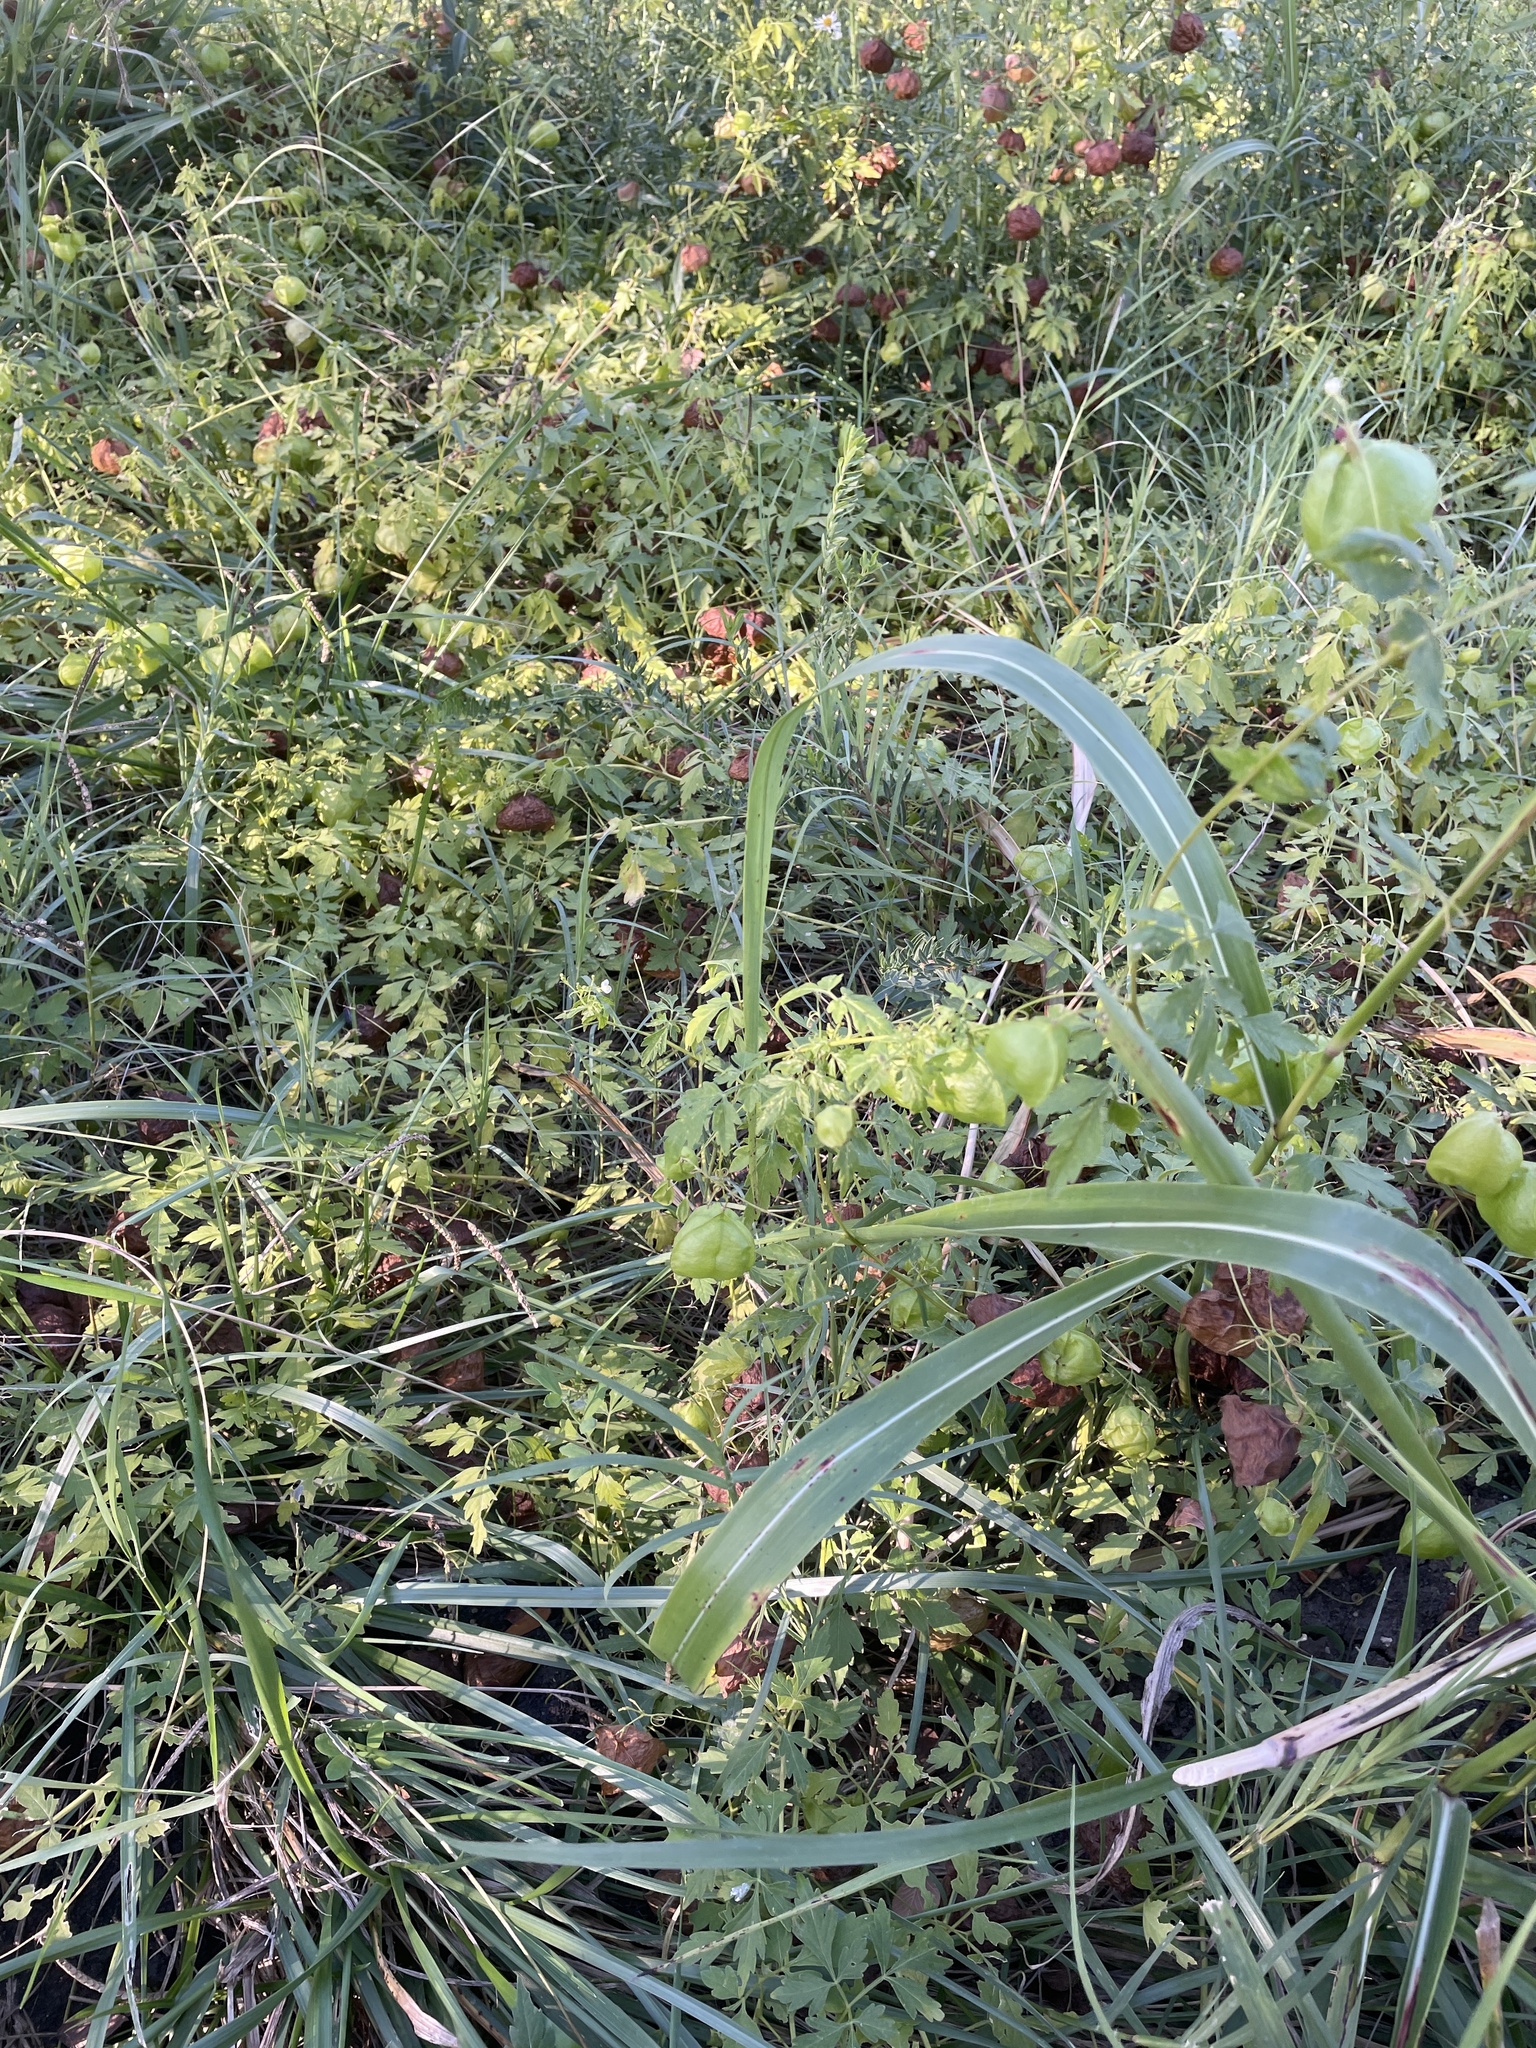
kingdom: Plantae
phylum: Tracheophyta
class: Magnoliopsida
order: Sapindales
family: Sapindaceae
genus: Cardiospermum
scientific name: Cardiospermum halicacabum
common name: Balloon vine
